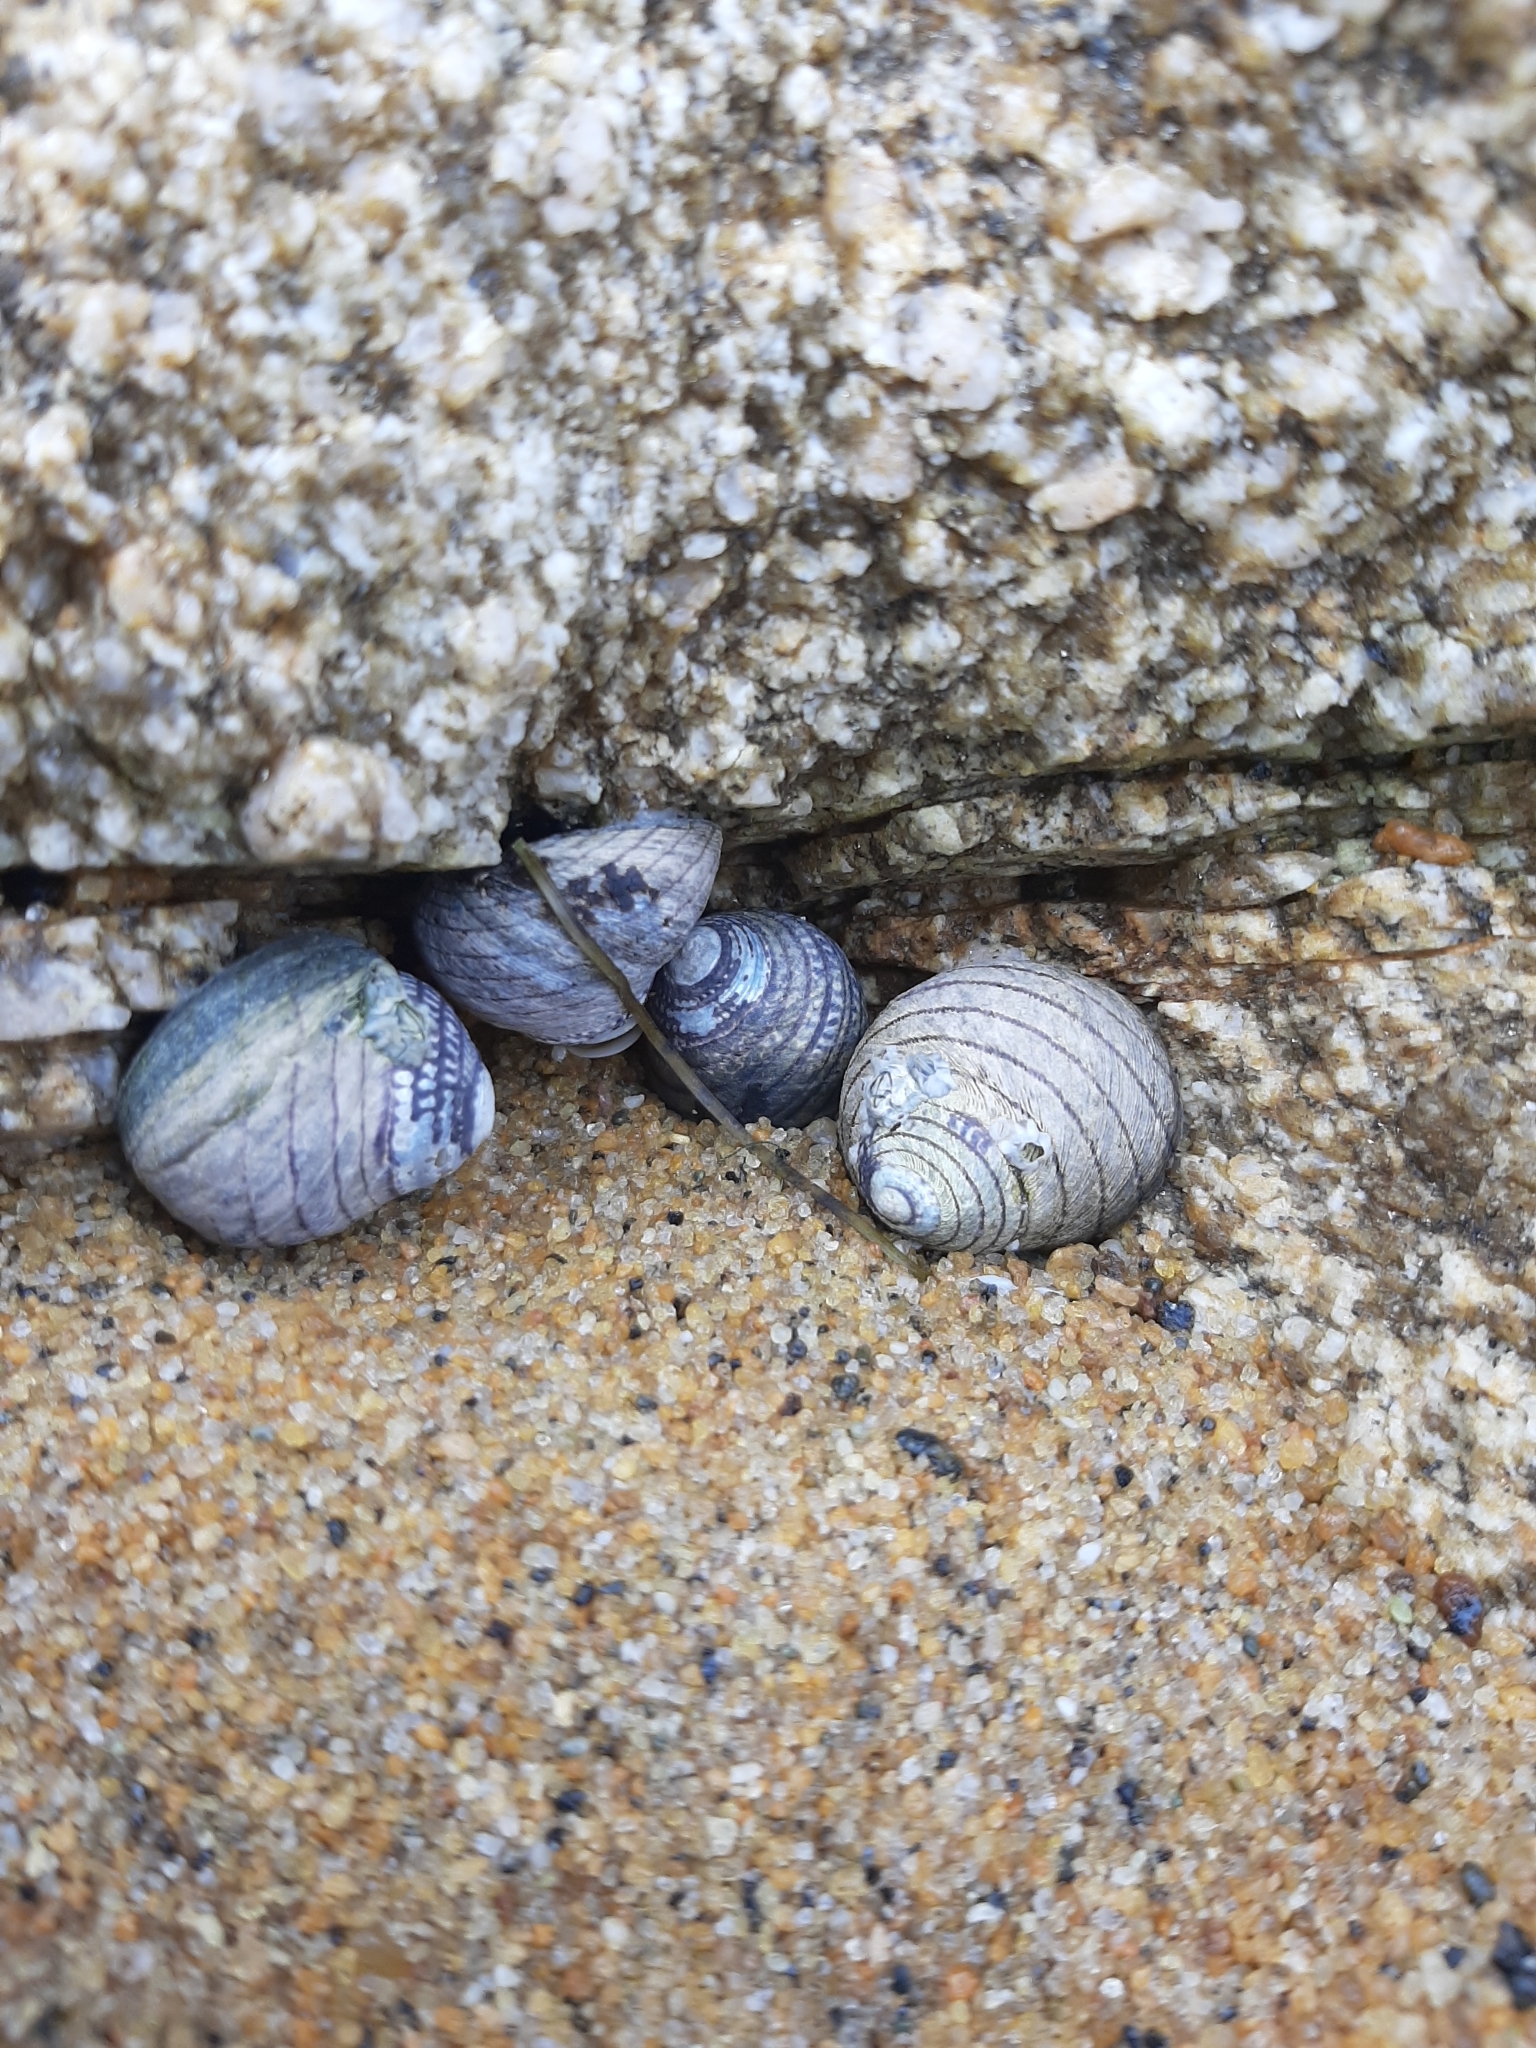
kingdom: Animalia
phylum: Mollusca
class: Gastropoda
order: Trochida
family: Trochidae
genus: Diloma
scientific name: Diloma aethiops
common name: Scorched monodont
